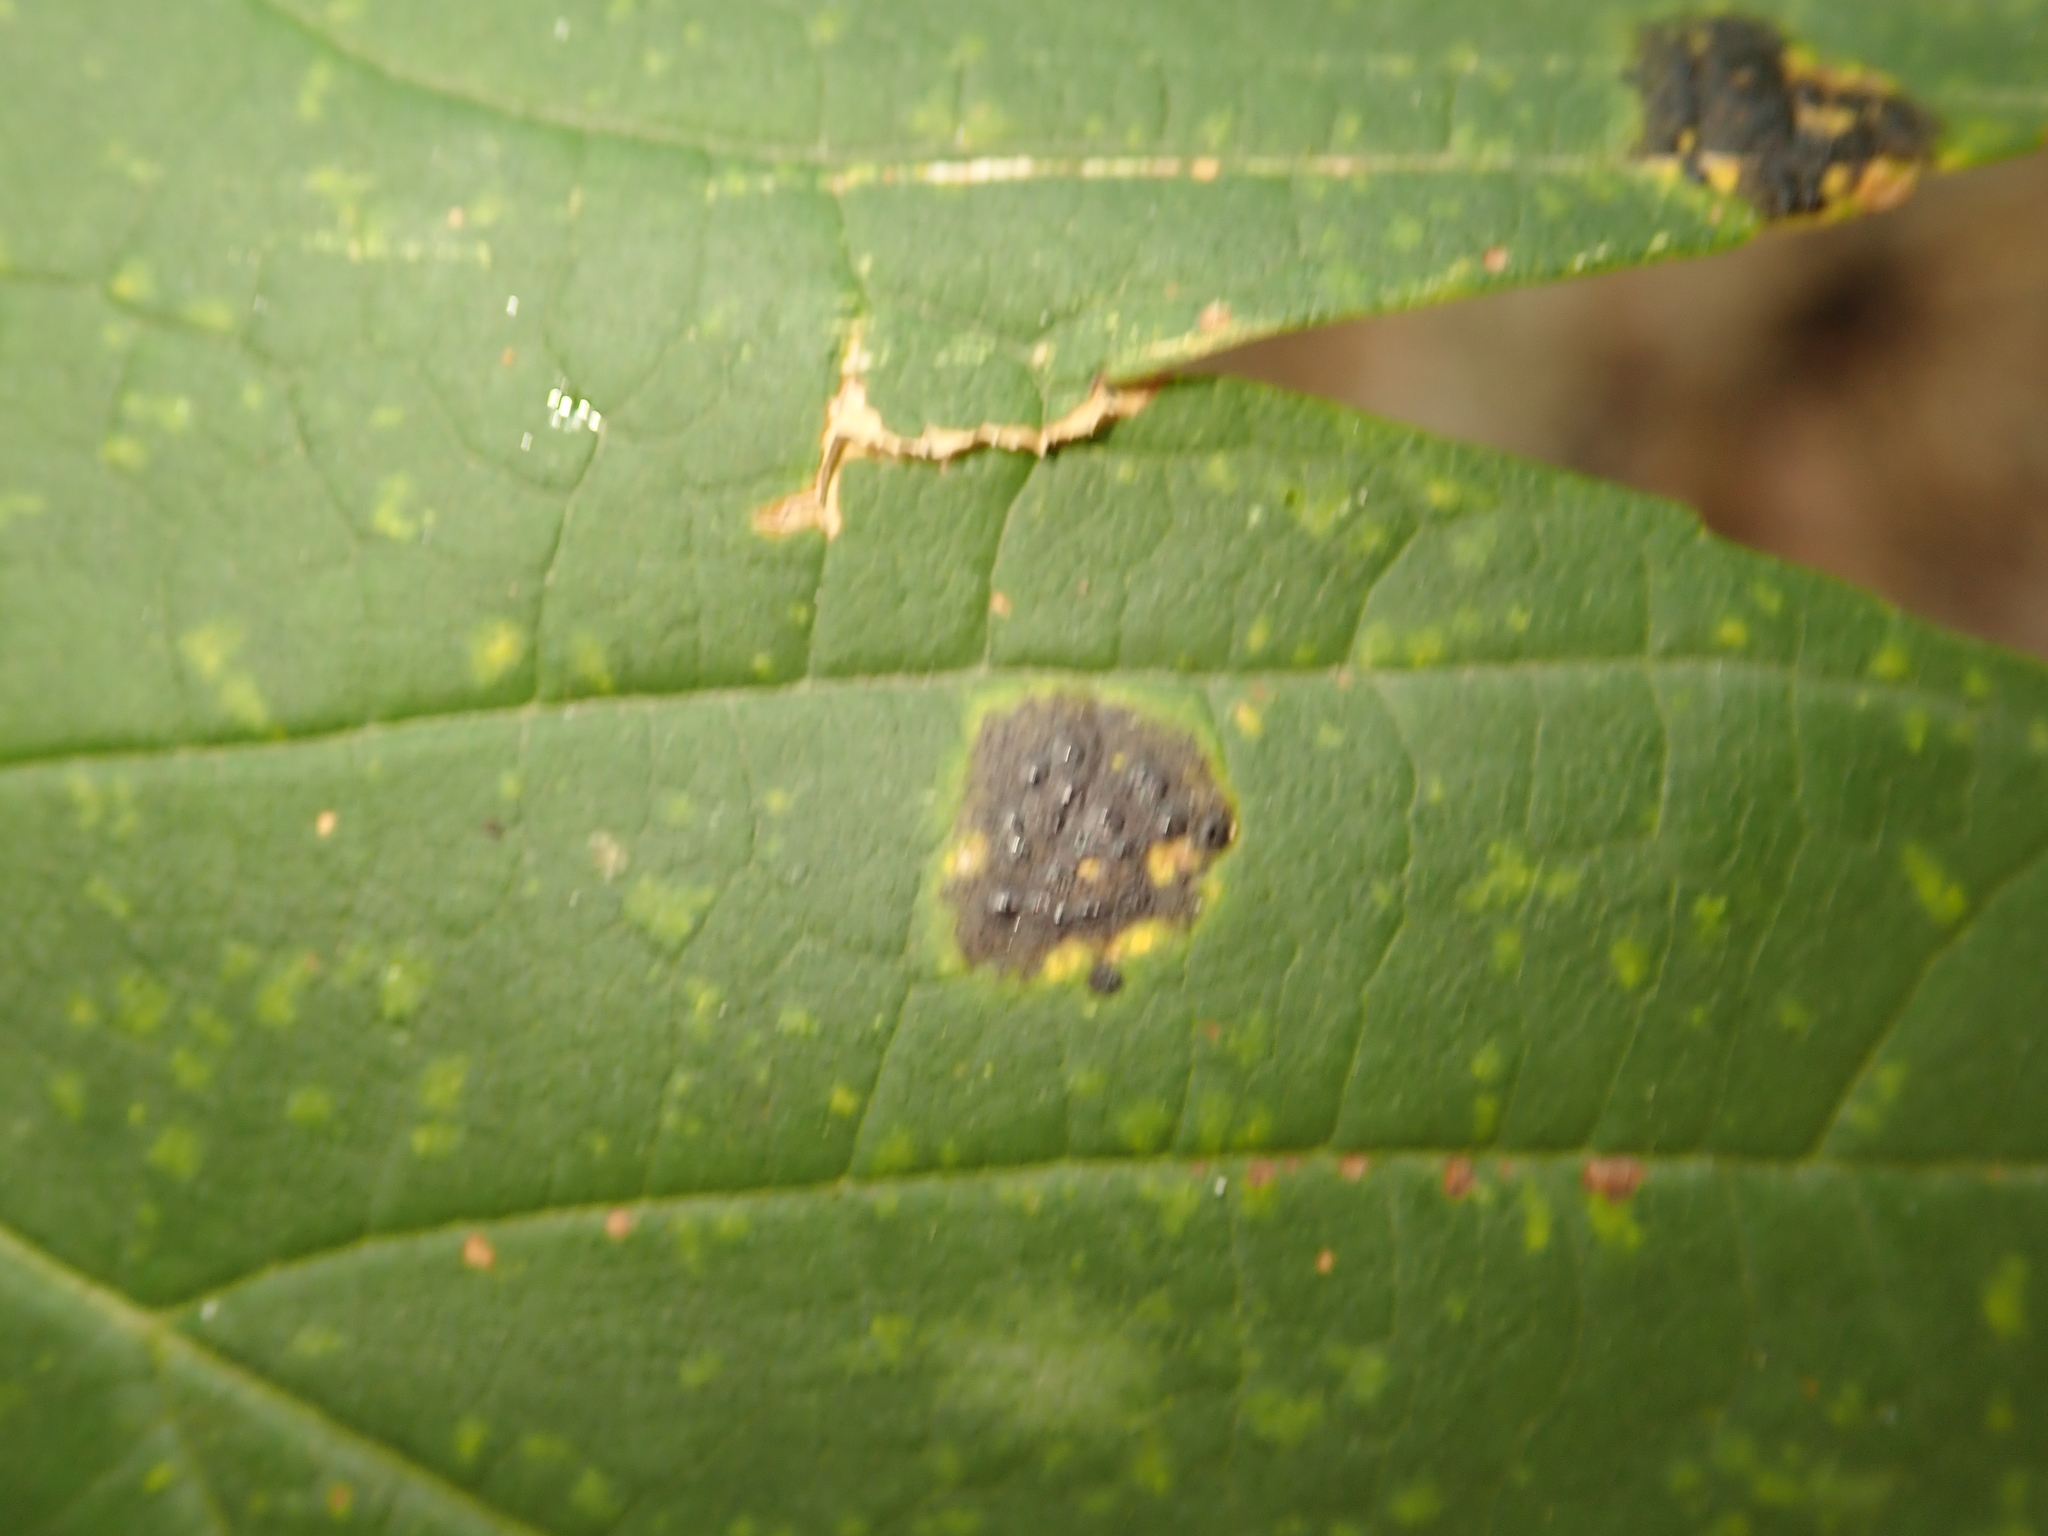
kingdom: Fungi
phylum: Ascomycota
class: Leotiomycetes
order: Rhytismatales
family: Rhytismataceae
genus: Rhytisma
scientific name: Rhytisma acerinum
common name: European tar spot
